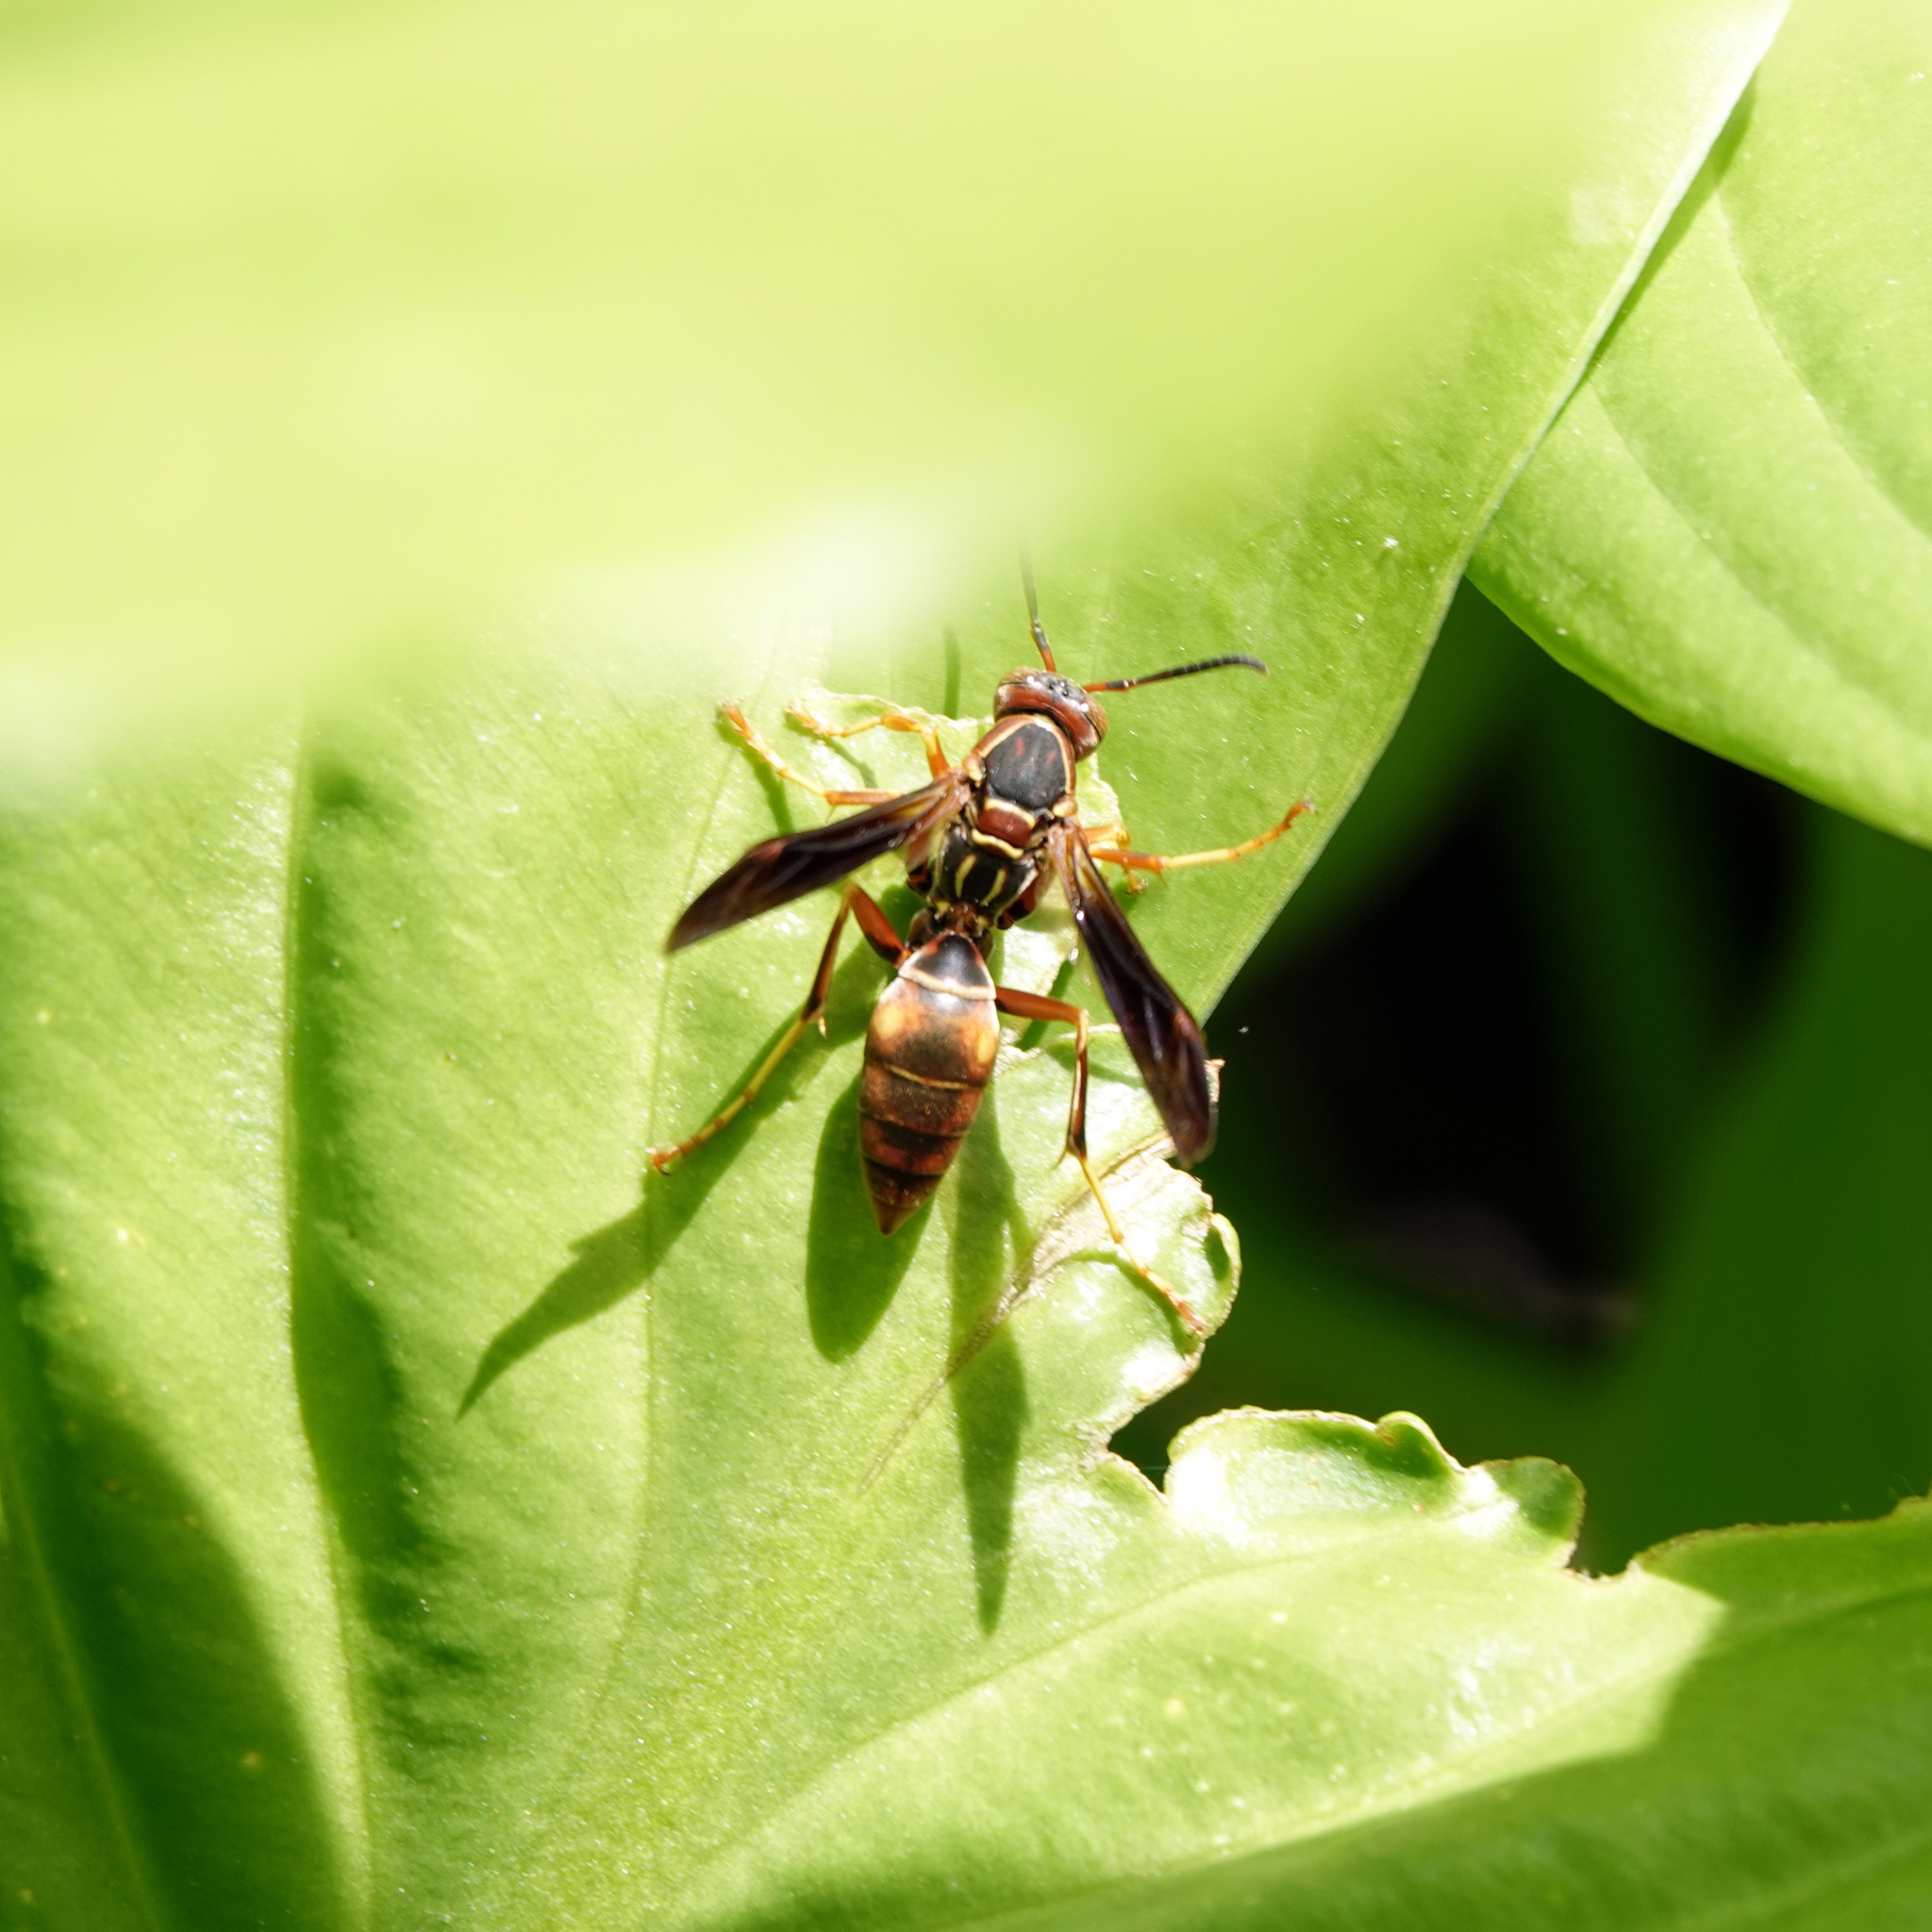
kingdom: Animalia
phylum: Arthropoda
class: Insecta
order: Hymenoptera
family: Eumenidae
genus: Polistes
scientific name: Polistes fuscatus
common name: Dark paper wasp
